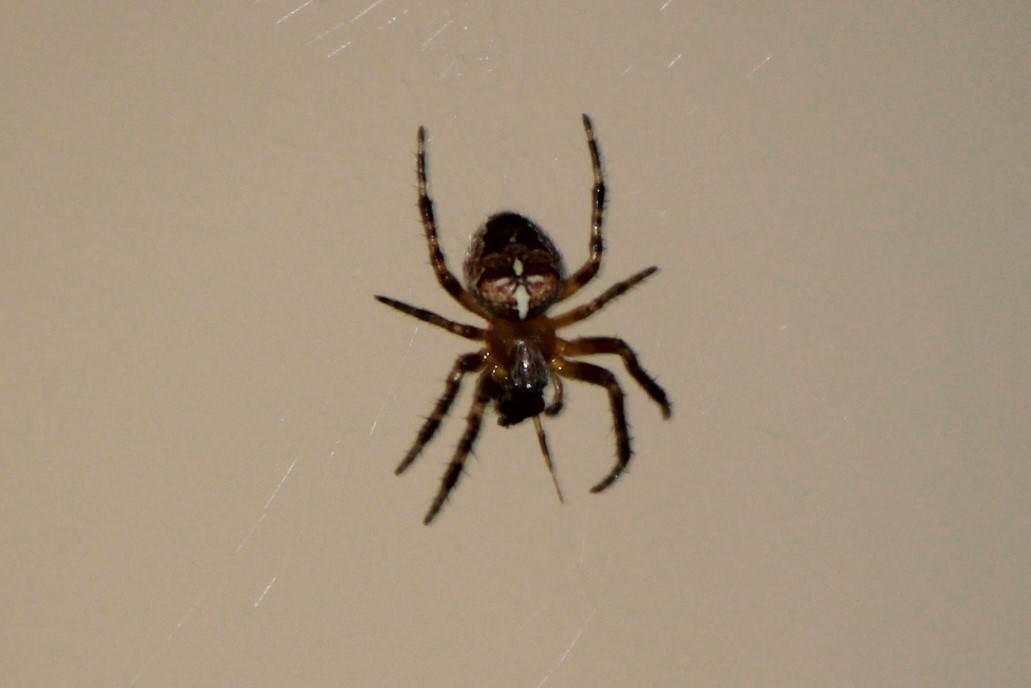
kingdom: Animalia
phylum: Arthropoda
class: Arachnida
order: Araneae
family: Araneidae
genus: Araneus
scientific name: Araneus diadematus
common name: Cross orbweaver
